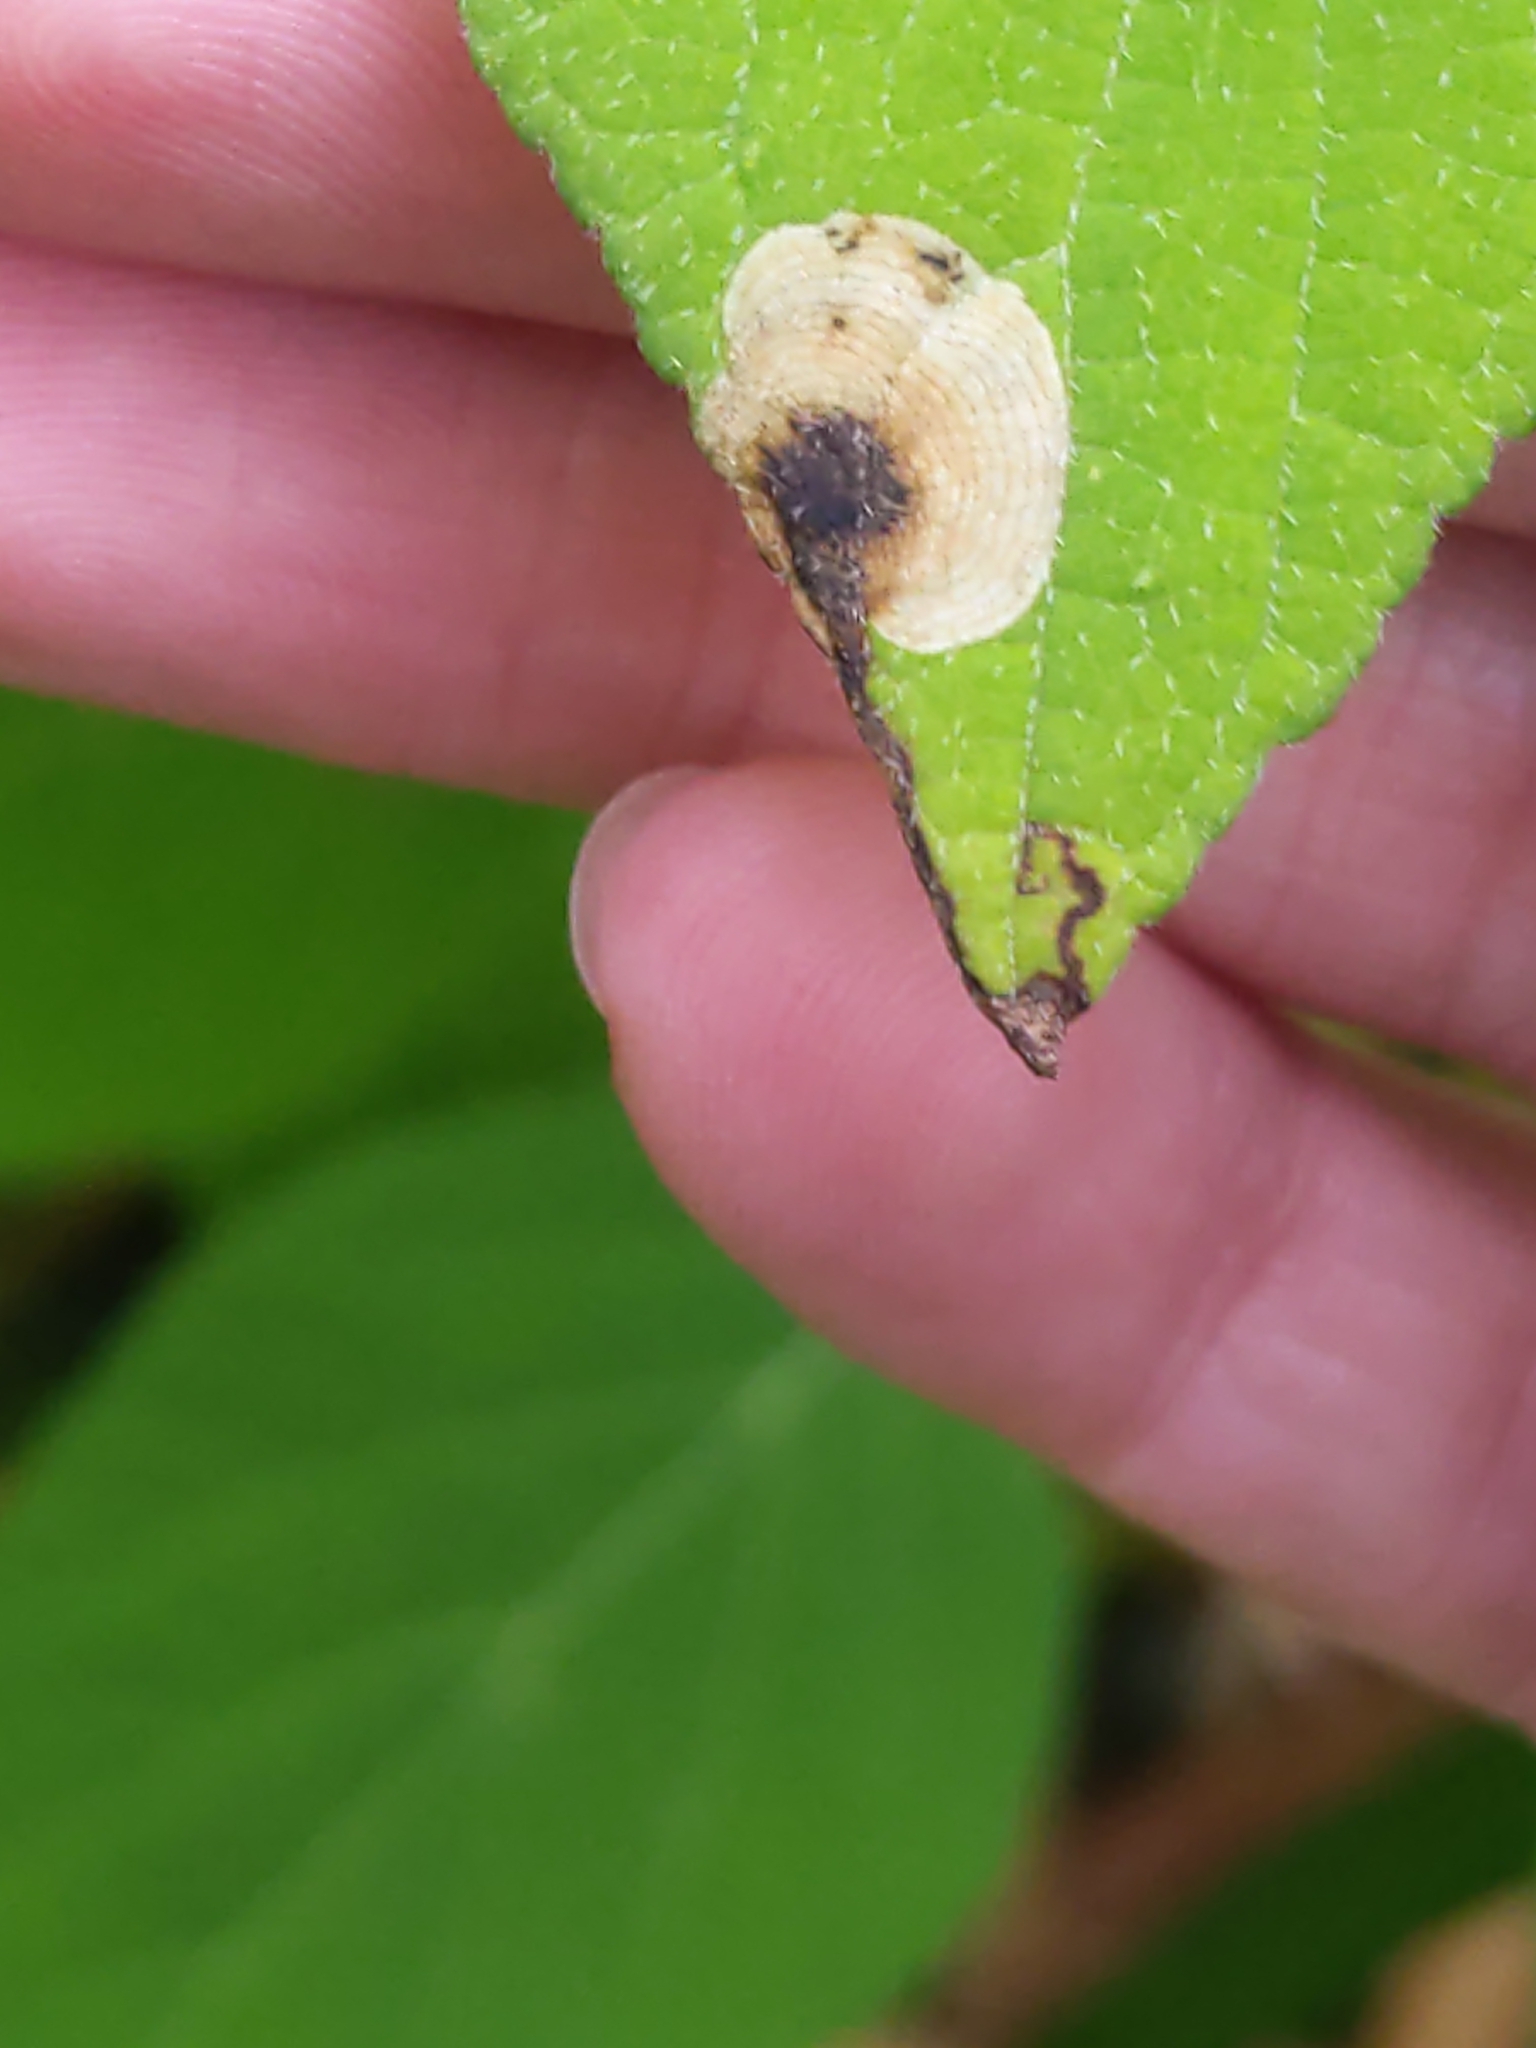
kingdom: Animalia
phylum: Arthropoda
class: Insecta
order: Lepidoptera
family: Heliozelidae
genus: Aspilanta
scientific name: Aspilanta hydrangaeella
